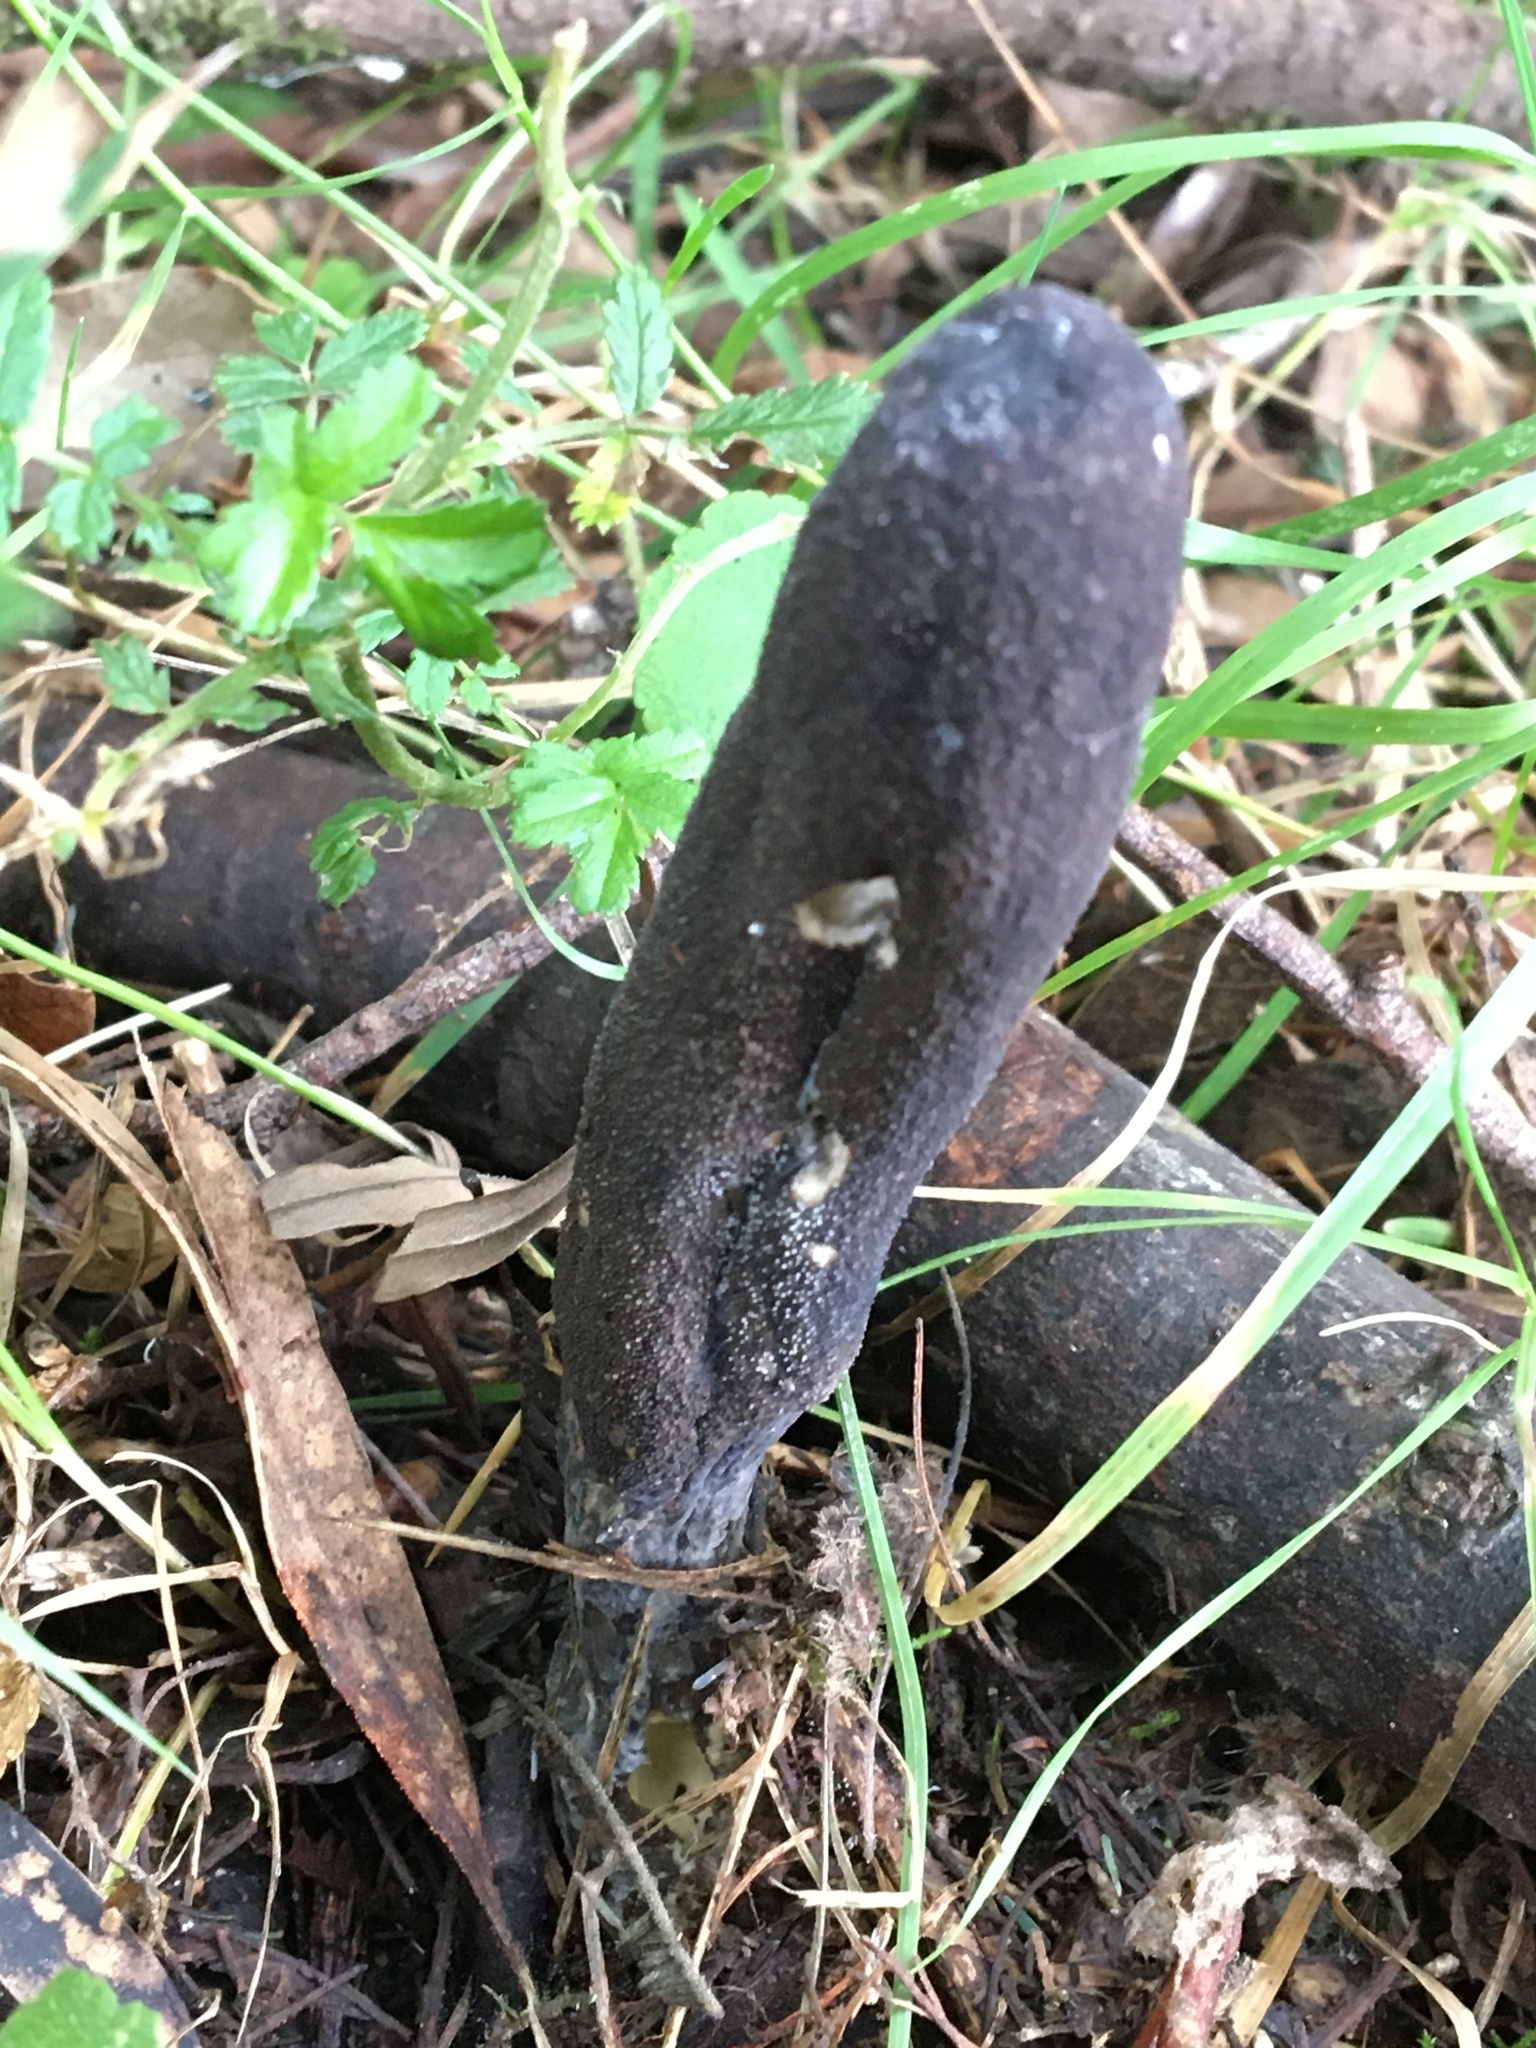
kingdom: Fungi
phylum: Ascomycota
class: Sordariomycetes
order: Hypocreales
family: Clavicipitaceae
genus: Drechmeria
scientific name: Drechmeria gunnii
